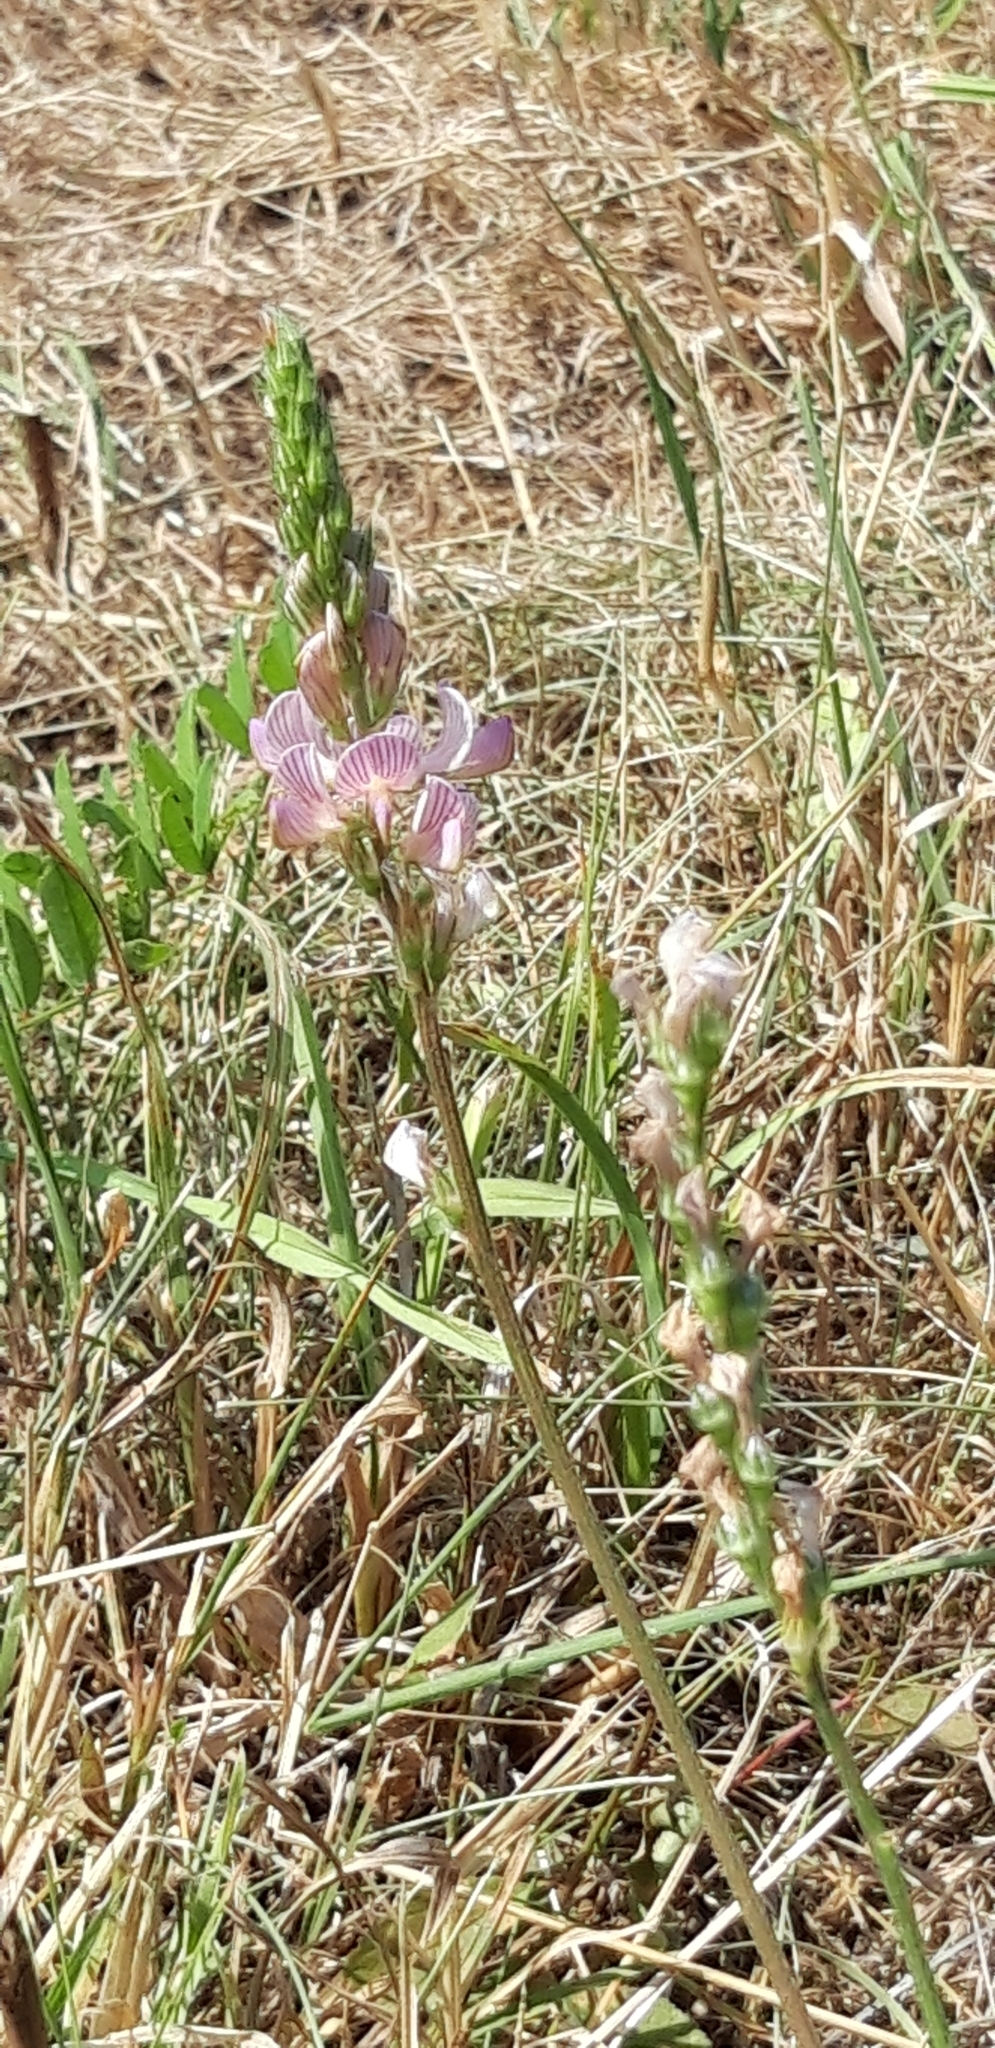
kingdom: Plantae
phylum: Tracheophyta
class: Magnoliopsida
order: Fabales
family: Fabaceae
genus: Onobrychis
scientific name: Onobrychis viciifolia
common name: Sainfoin
